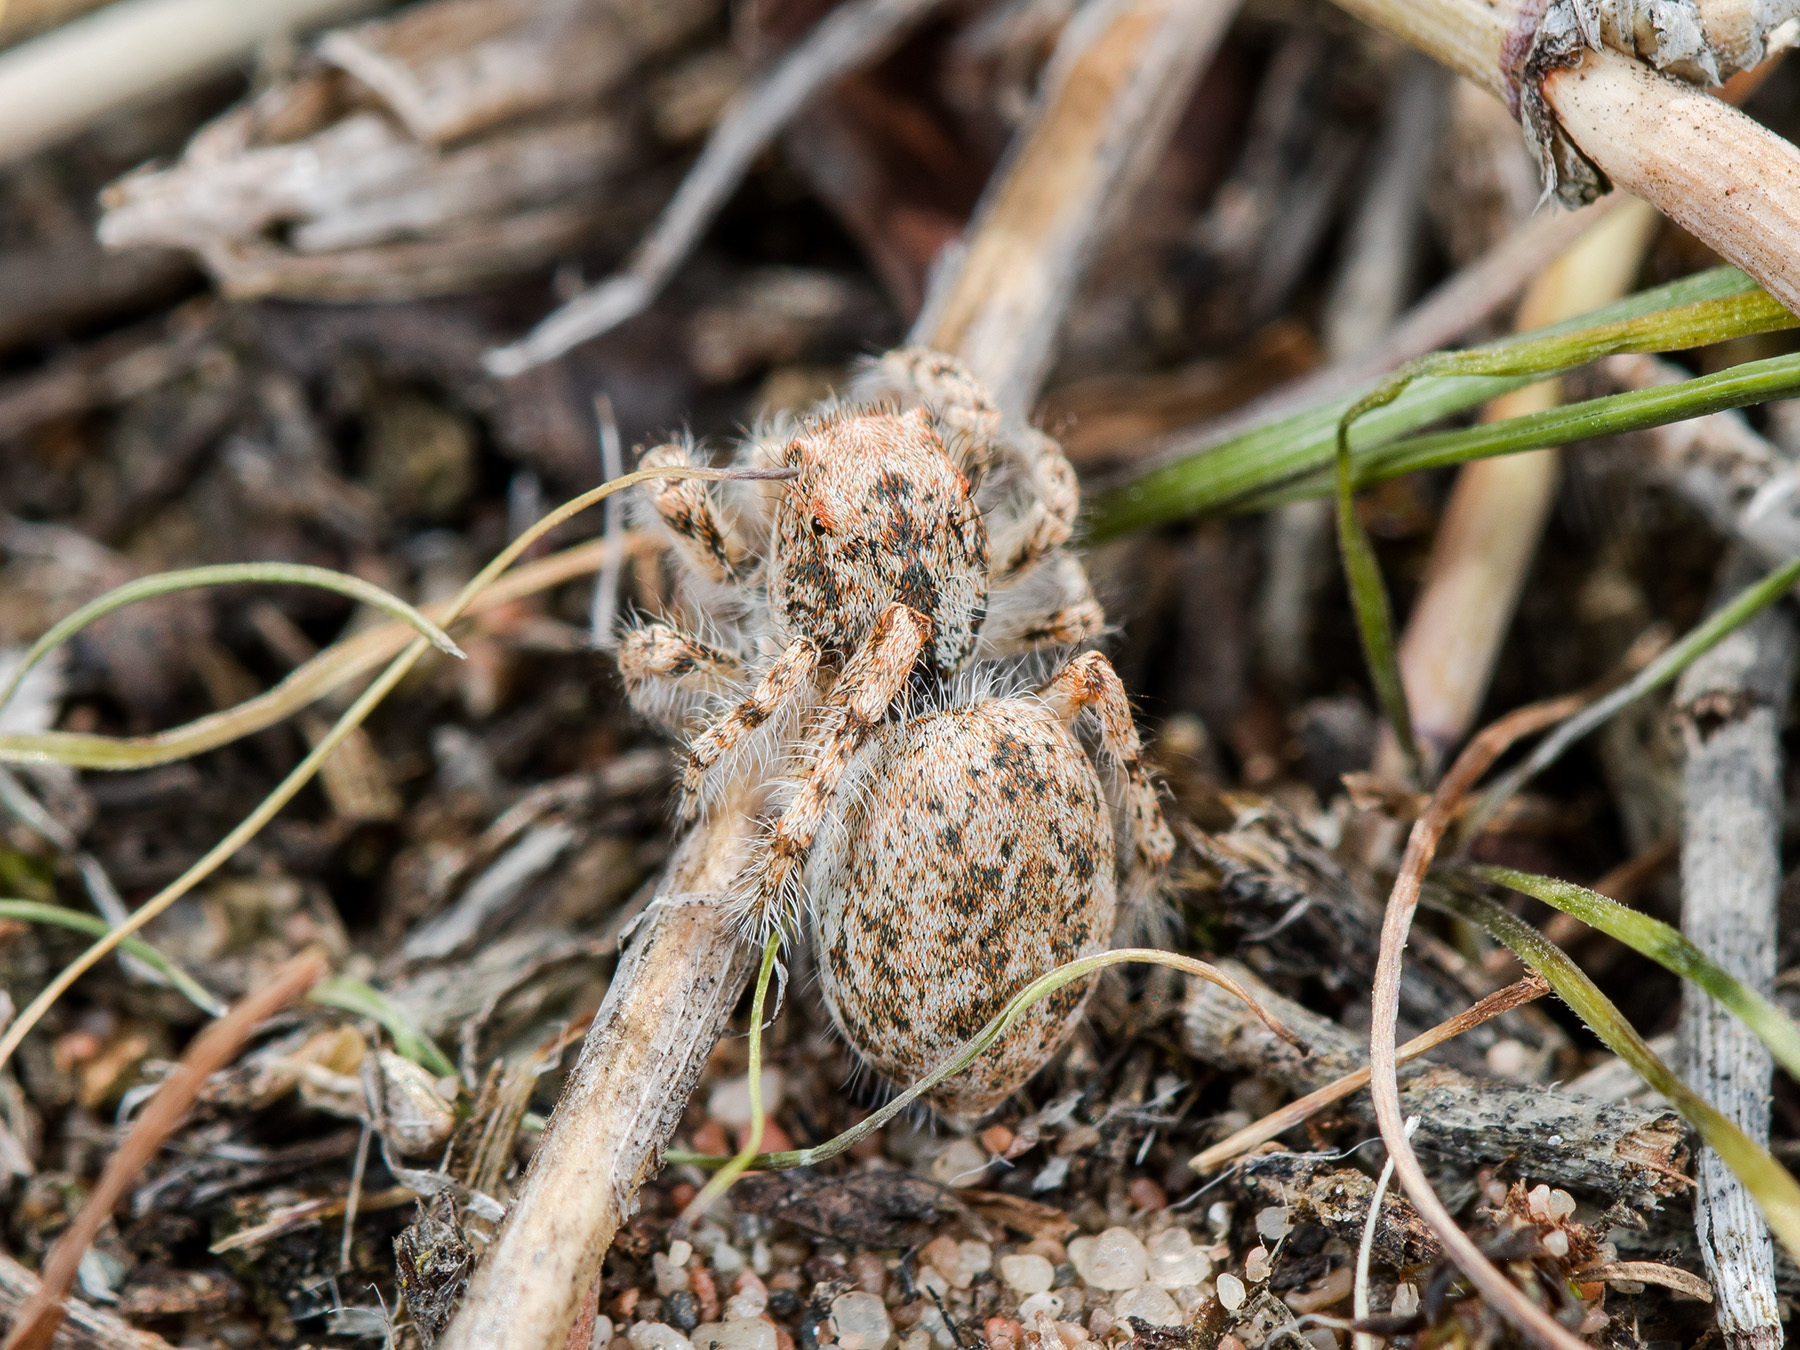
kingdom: Animalia
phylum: Arthropoda
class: Arachnida
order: Araneae
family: Salticidae
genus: Yllenus
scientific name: Yllenus uiguricus
